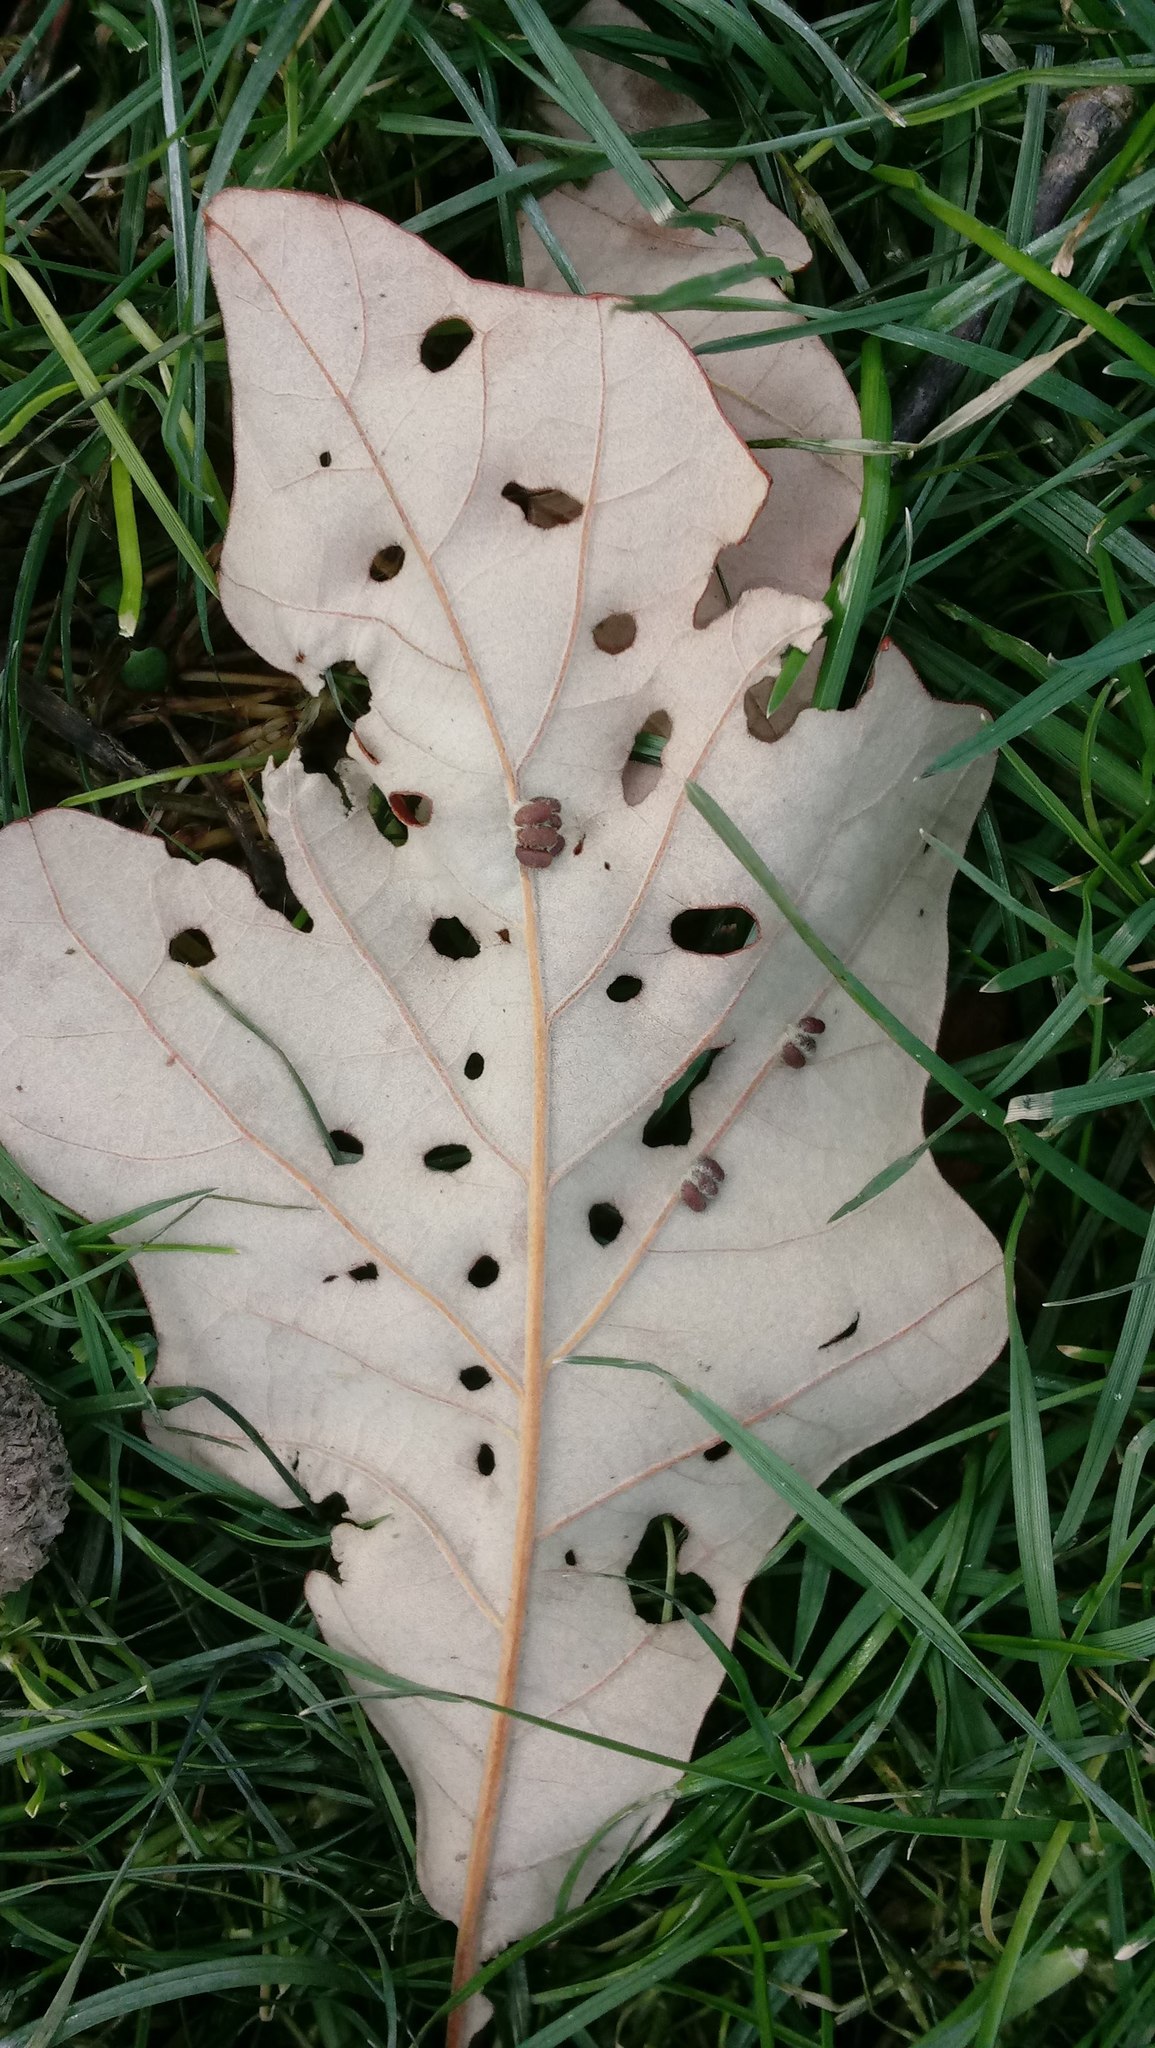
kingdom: Animalia
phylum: Arthropoda
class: Insecta
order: Hymenoptera
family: Cynipidae
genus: Andricus
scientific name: Andricus Druon ignotum
